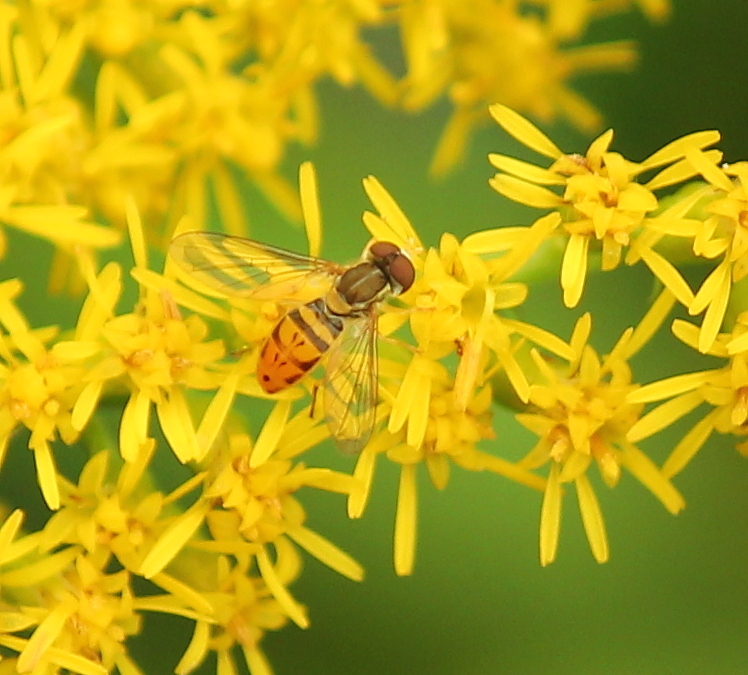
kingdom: Animalia
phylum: Arthropoda
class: Insecta
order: Diptera
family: Syrphidae
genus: Toxomerus
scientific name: Toxomerus marginatus
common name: Syrphid fly
